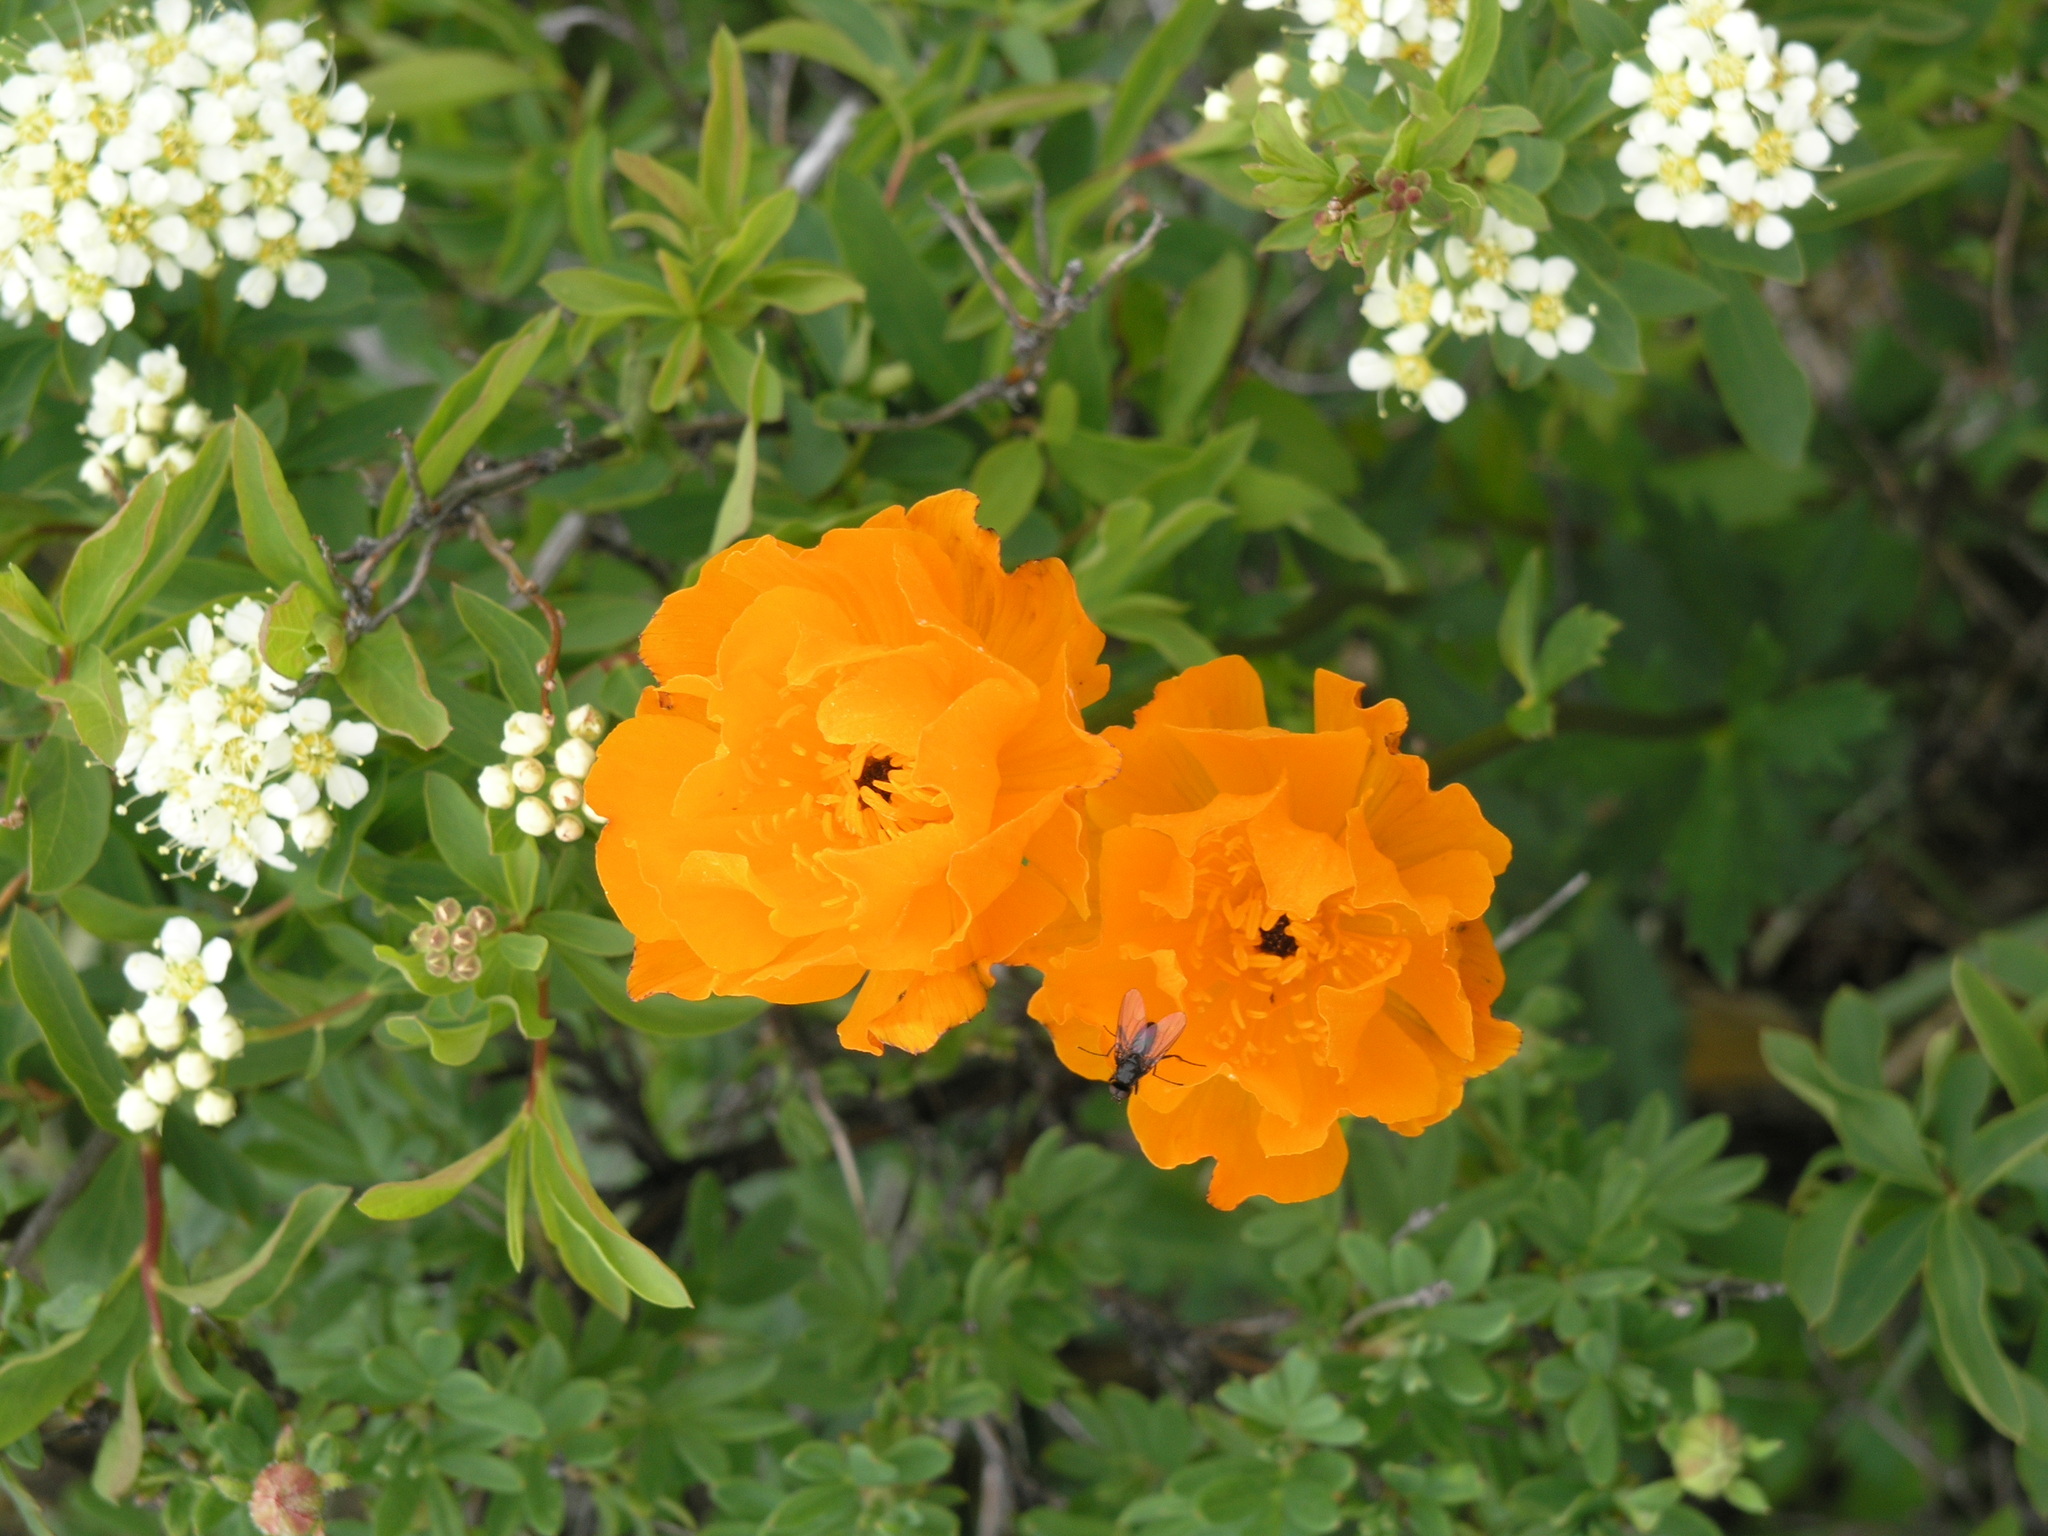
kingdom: Plantae
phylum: Tracheophyta
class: Magnoliopsida
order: Rosales
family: Rosaceae
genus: Spiraea
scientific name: Spiraea alpina
